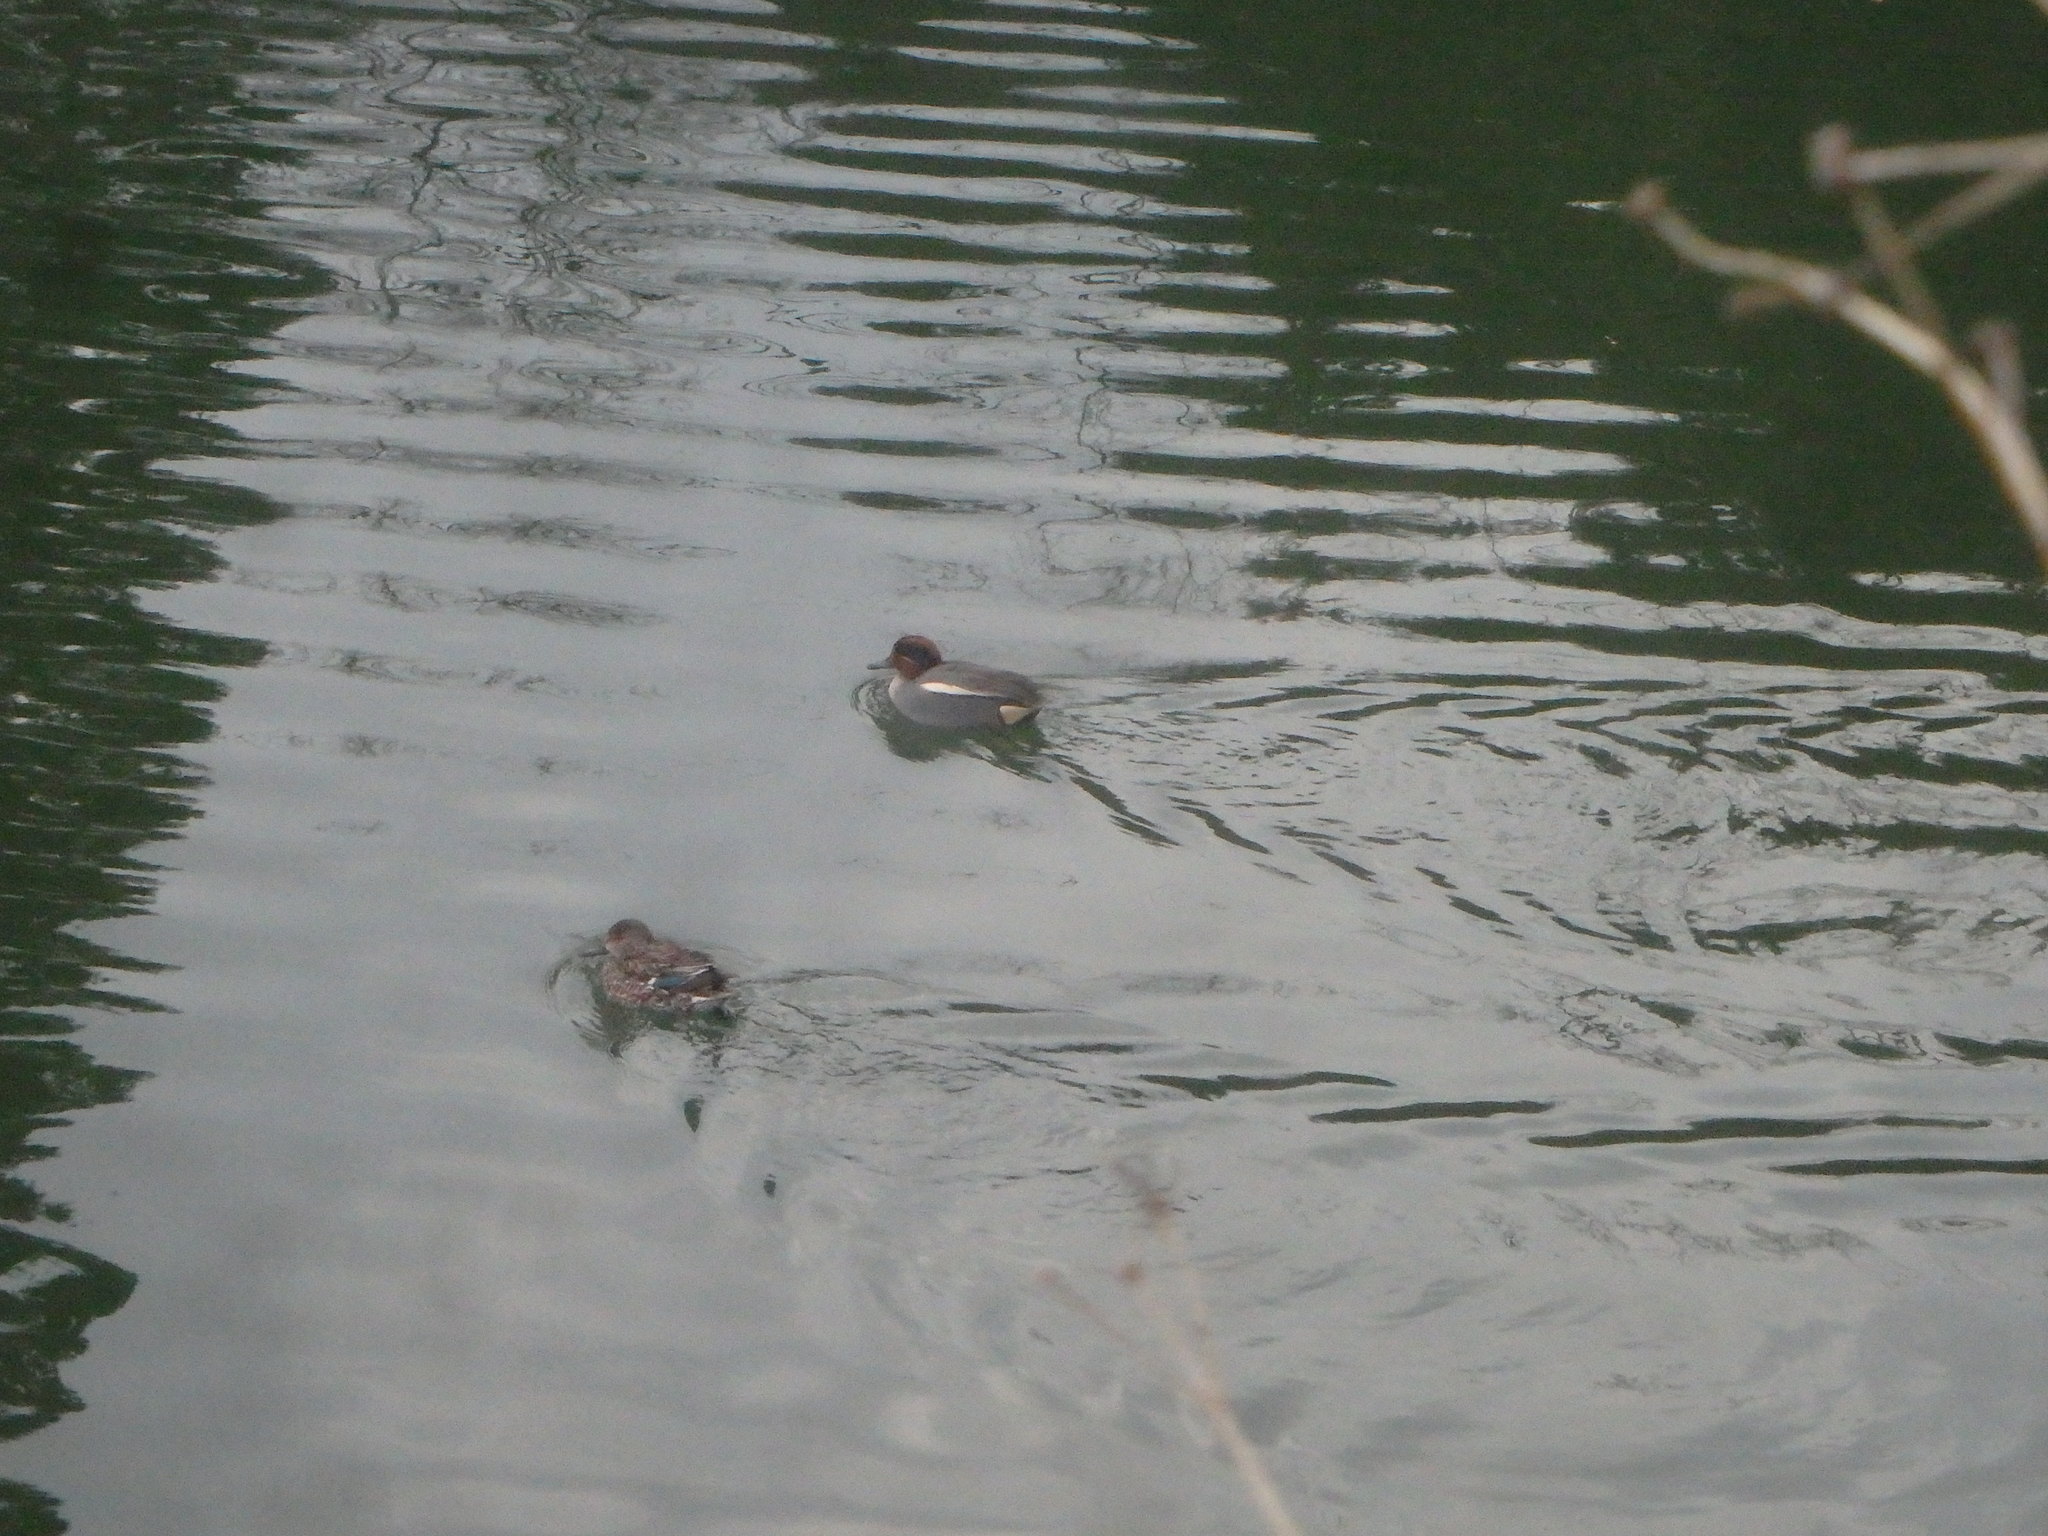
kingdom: Animalia
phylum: Chordata
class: Aves
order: Anseriformes
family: Anatidae
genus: Anas
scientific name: Anas crecca
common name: Eurasian teal
